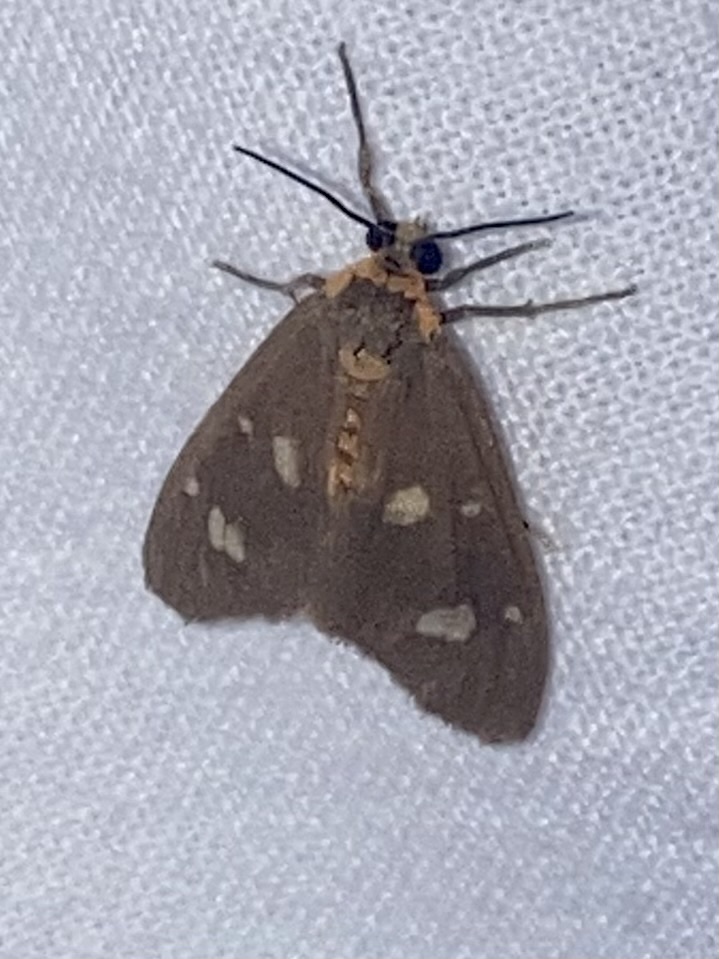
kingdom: Animalia
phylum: Arthropoda
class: Insecta
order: Lepidoptera
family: Erebidae
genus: Dysauxes
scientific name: Dysauxes punctata
